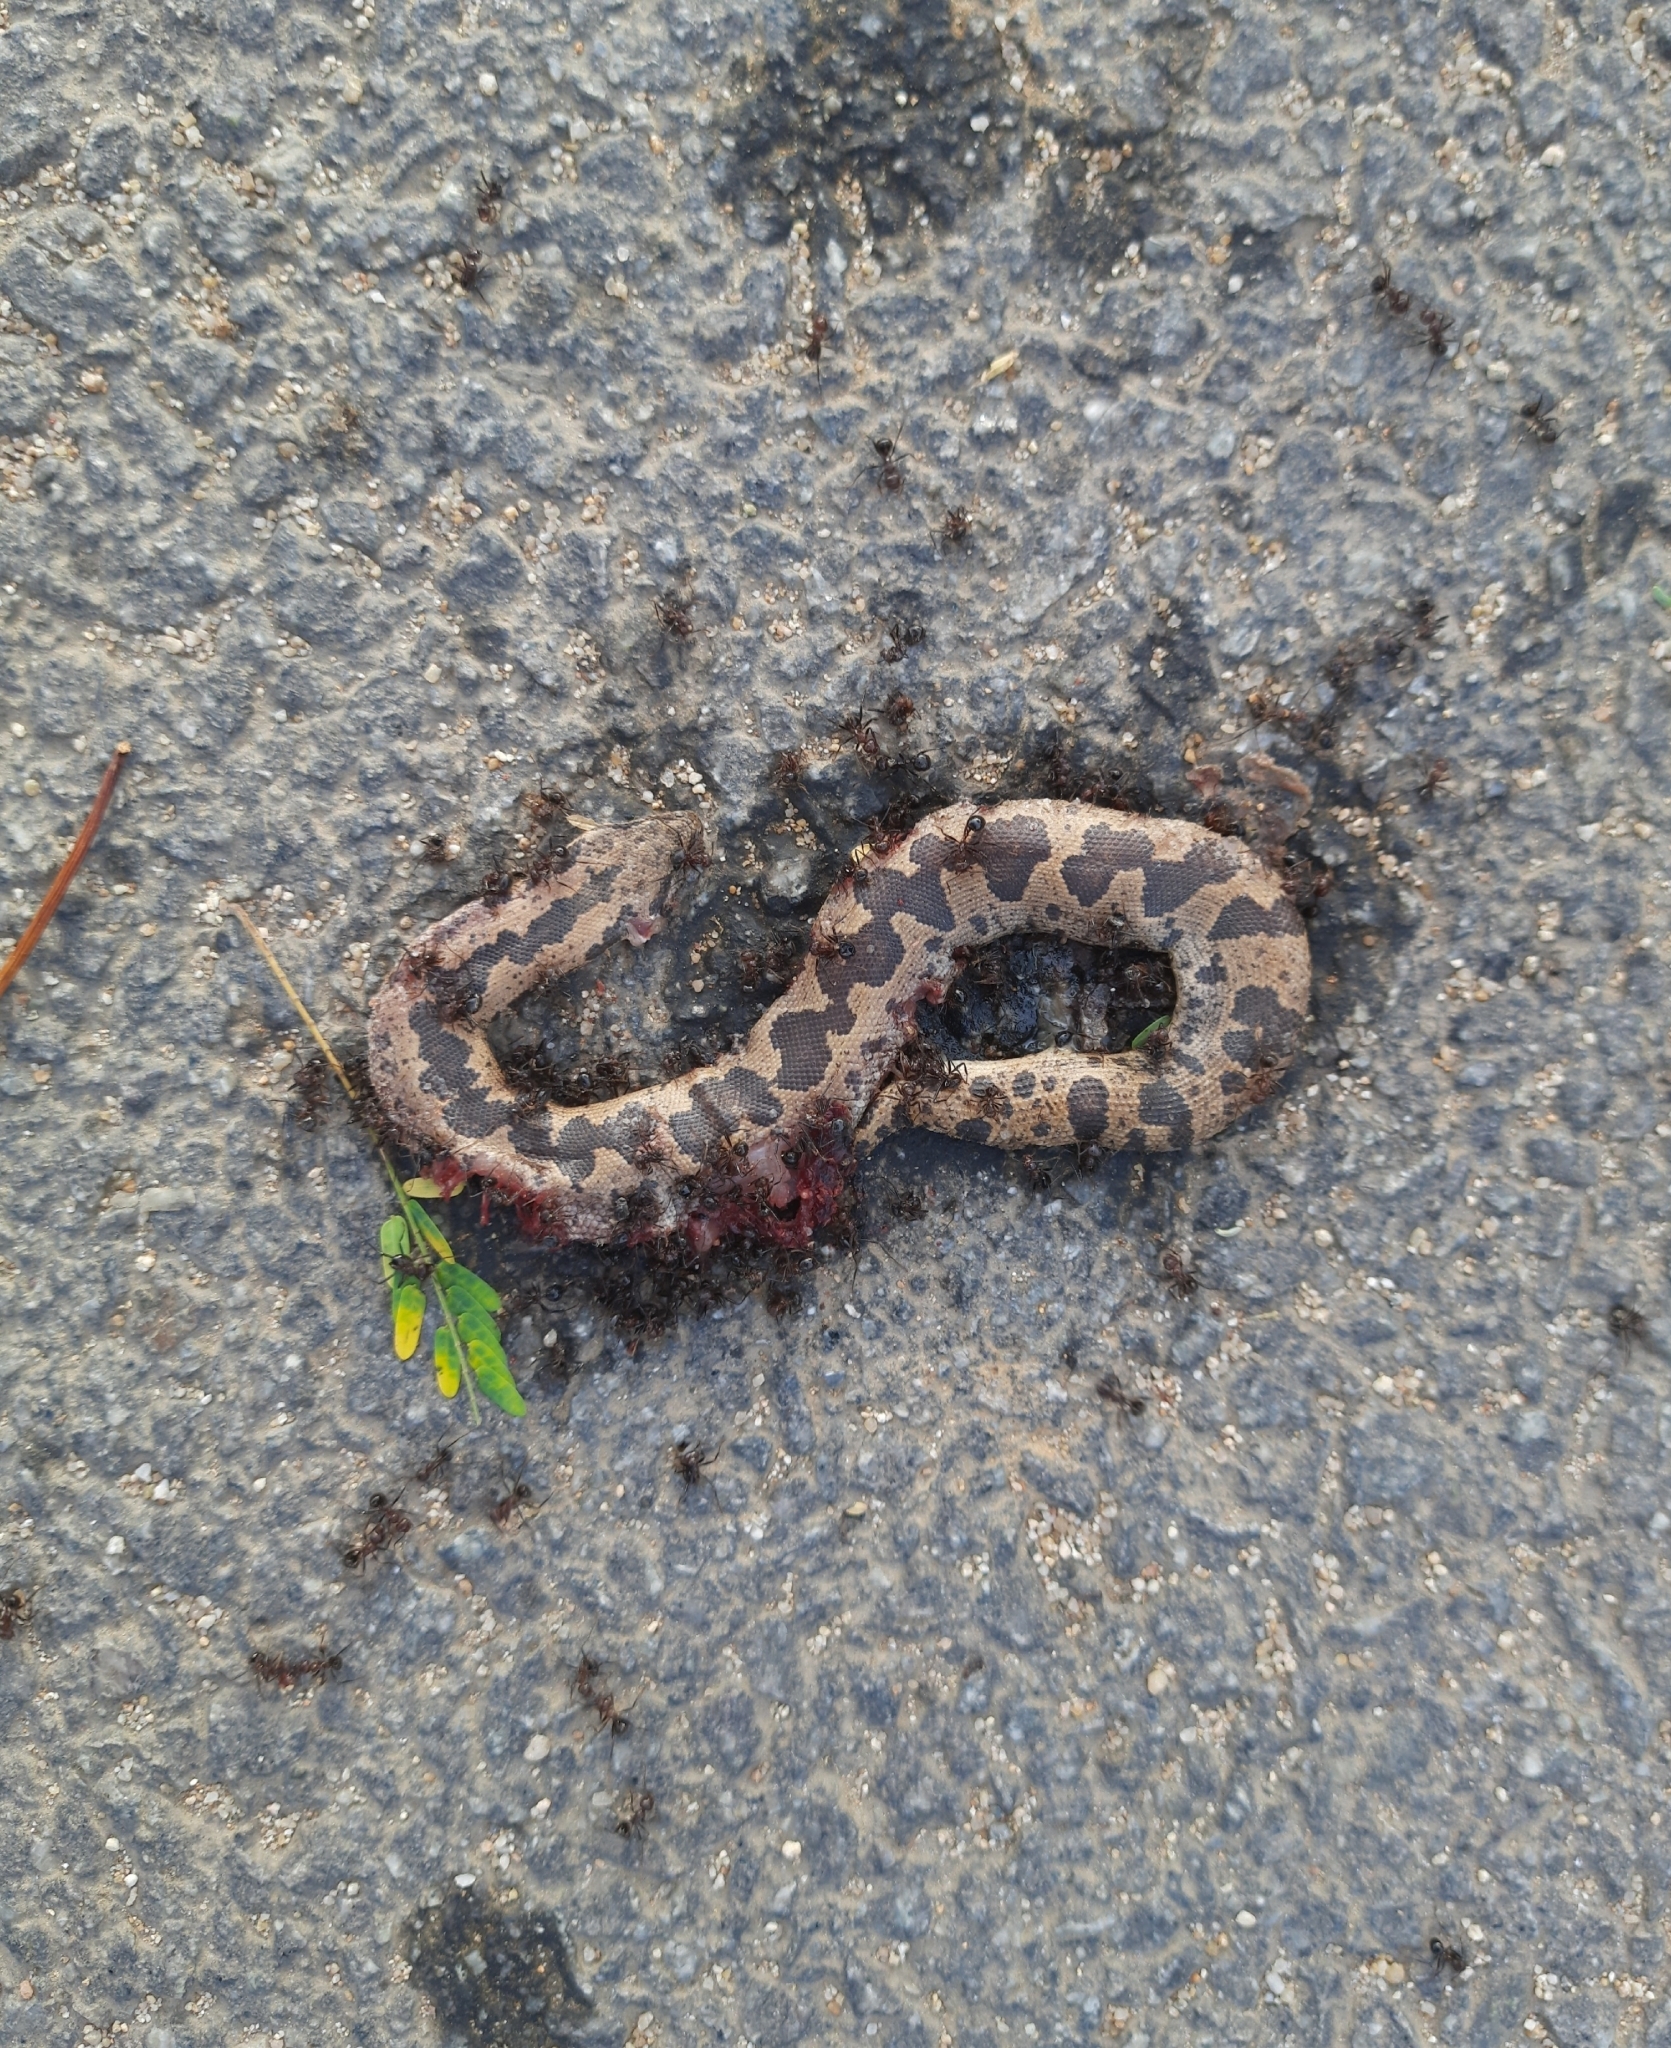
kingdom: Animalia
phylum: Chordata
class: Squamata
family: Boidae
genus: Eryx
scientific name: Eryx conicus
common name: Rough-tailed sand boa
